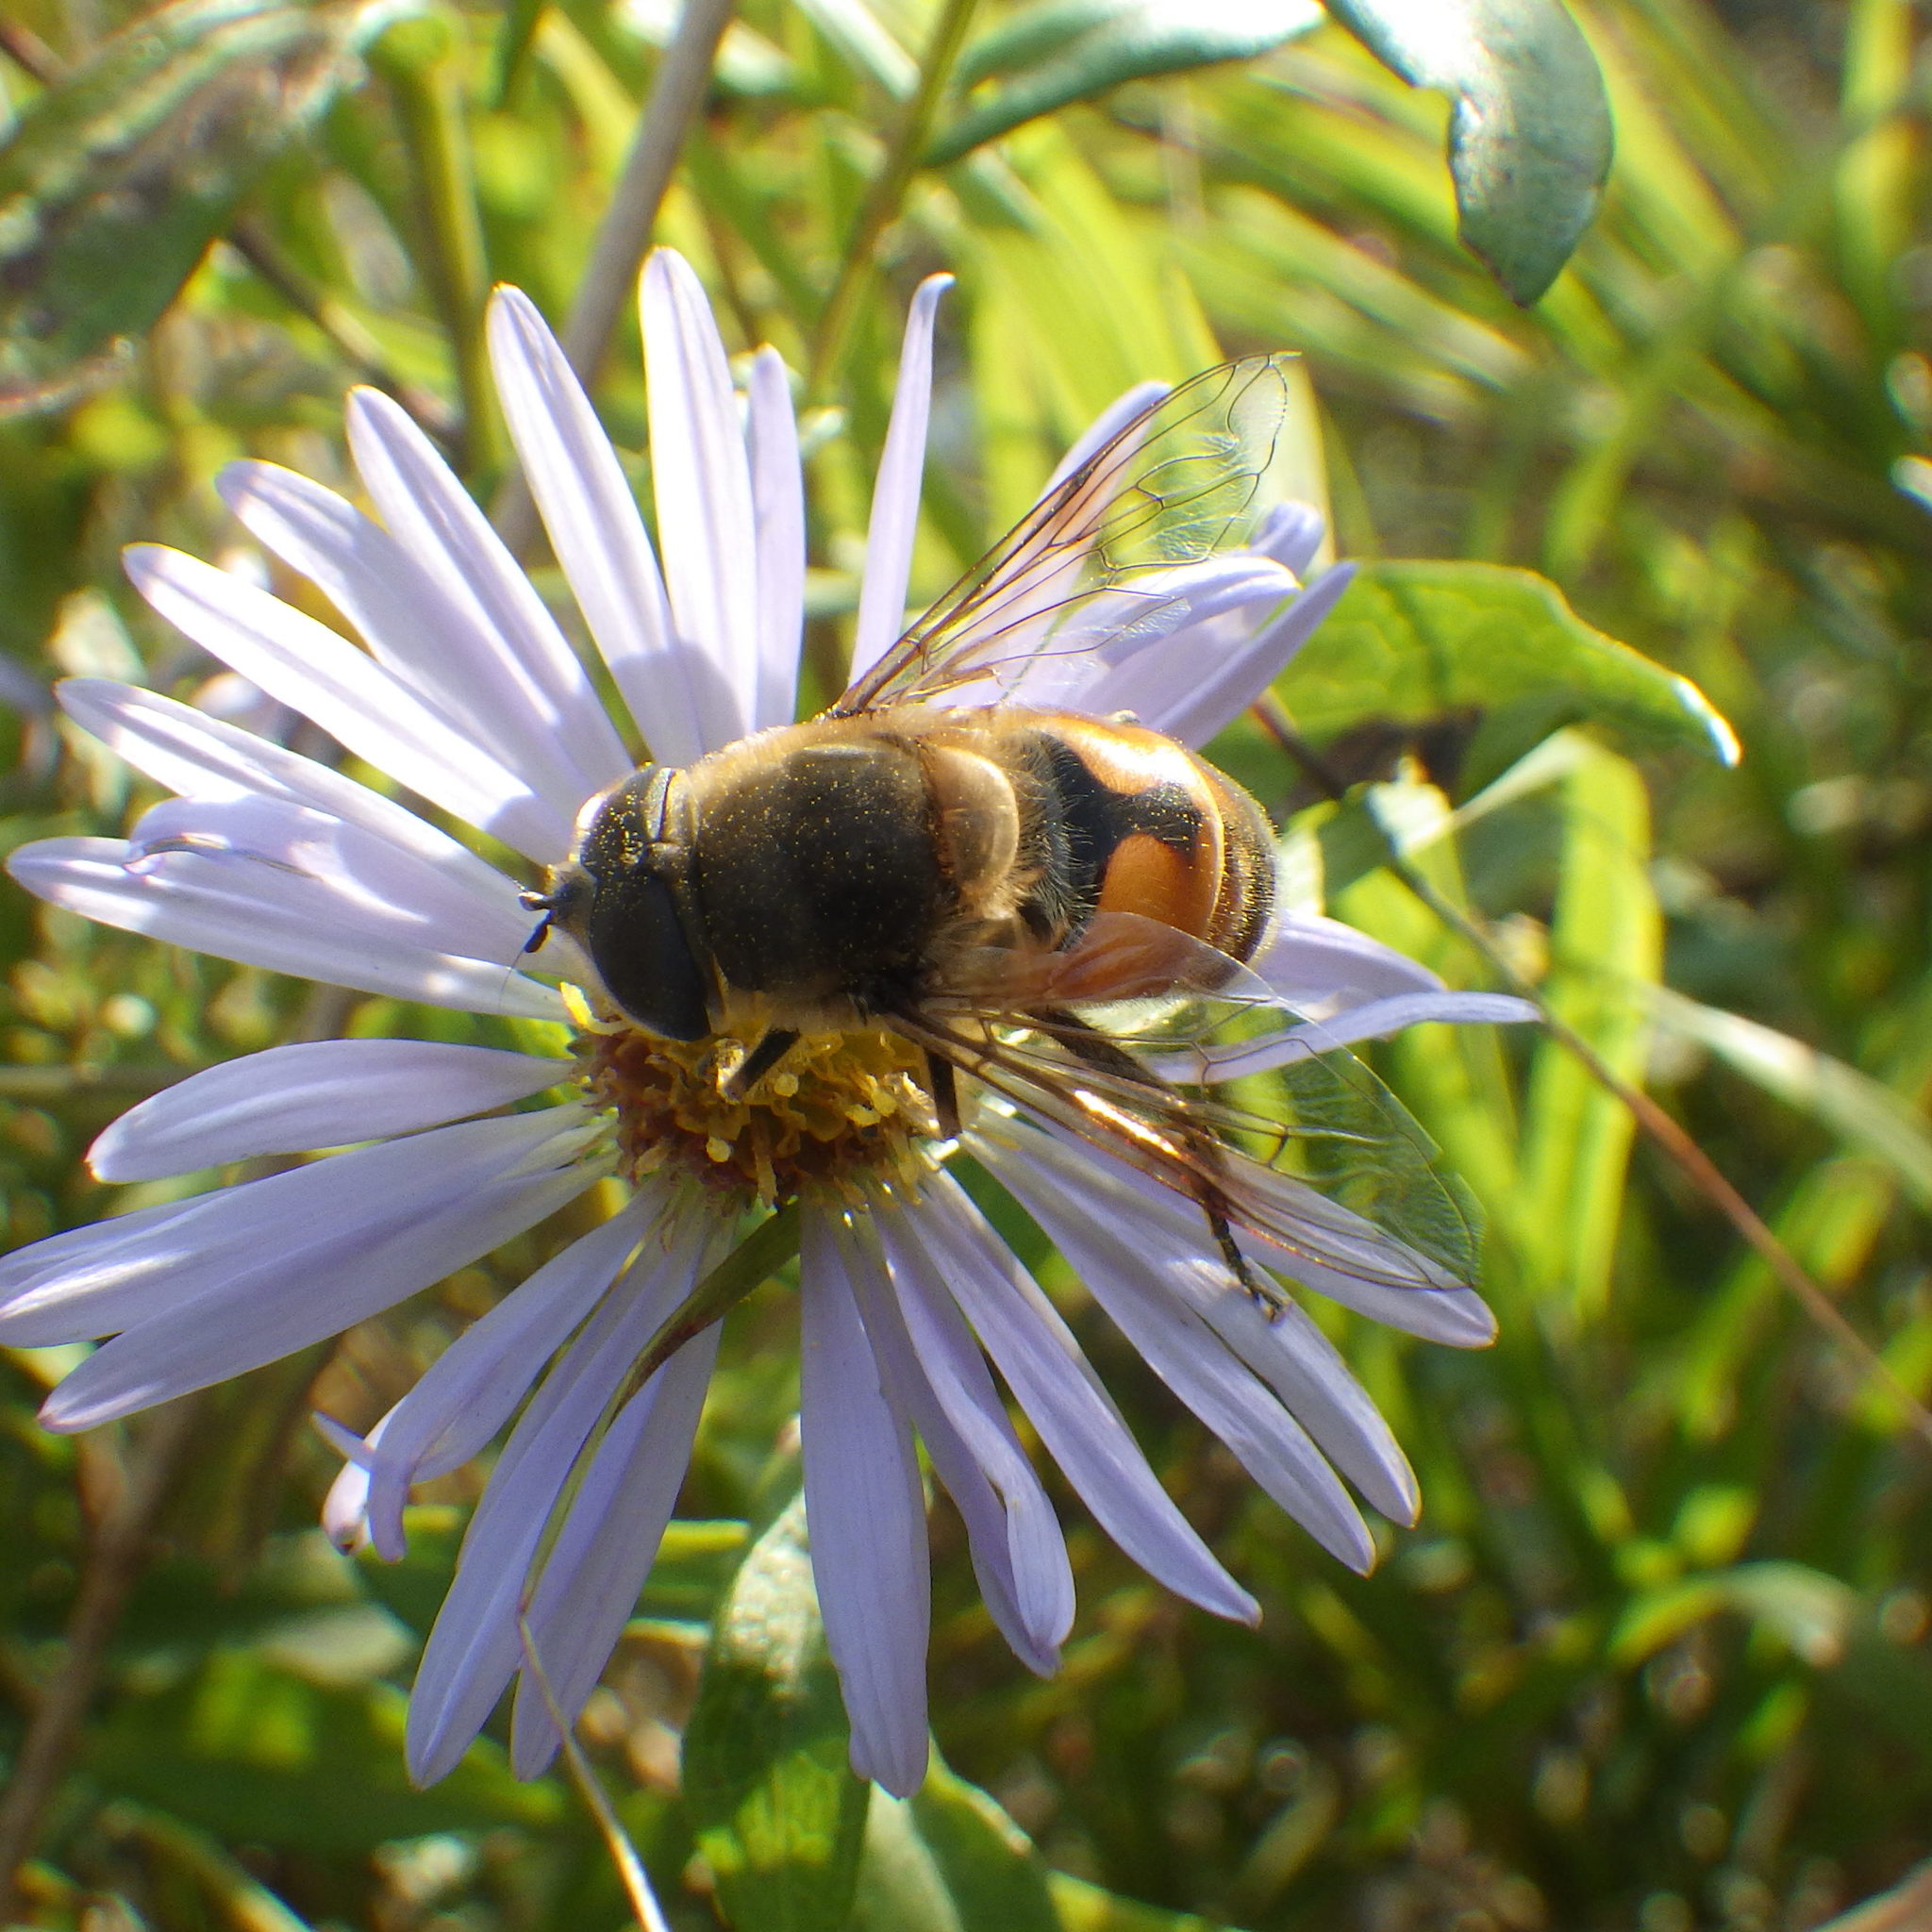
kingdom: Animalia
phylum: Arthropoda
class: Insecta
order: Diptera
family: Syrphidae
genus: Eristalis
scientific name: Eristalis tenax
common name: Drone fly
